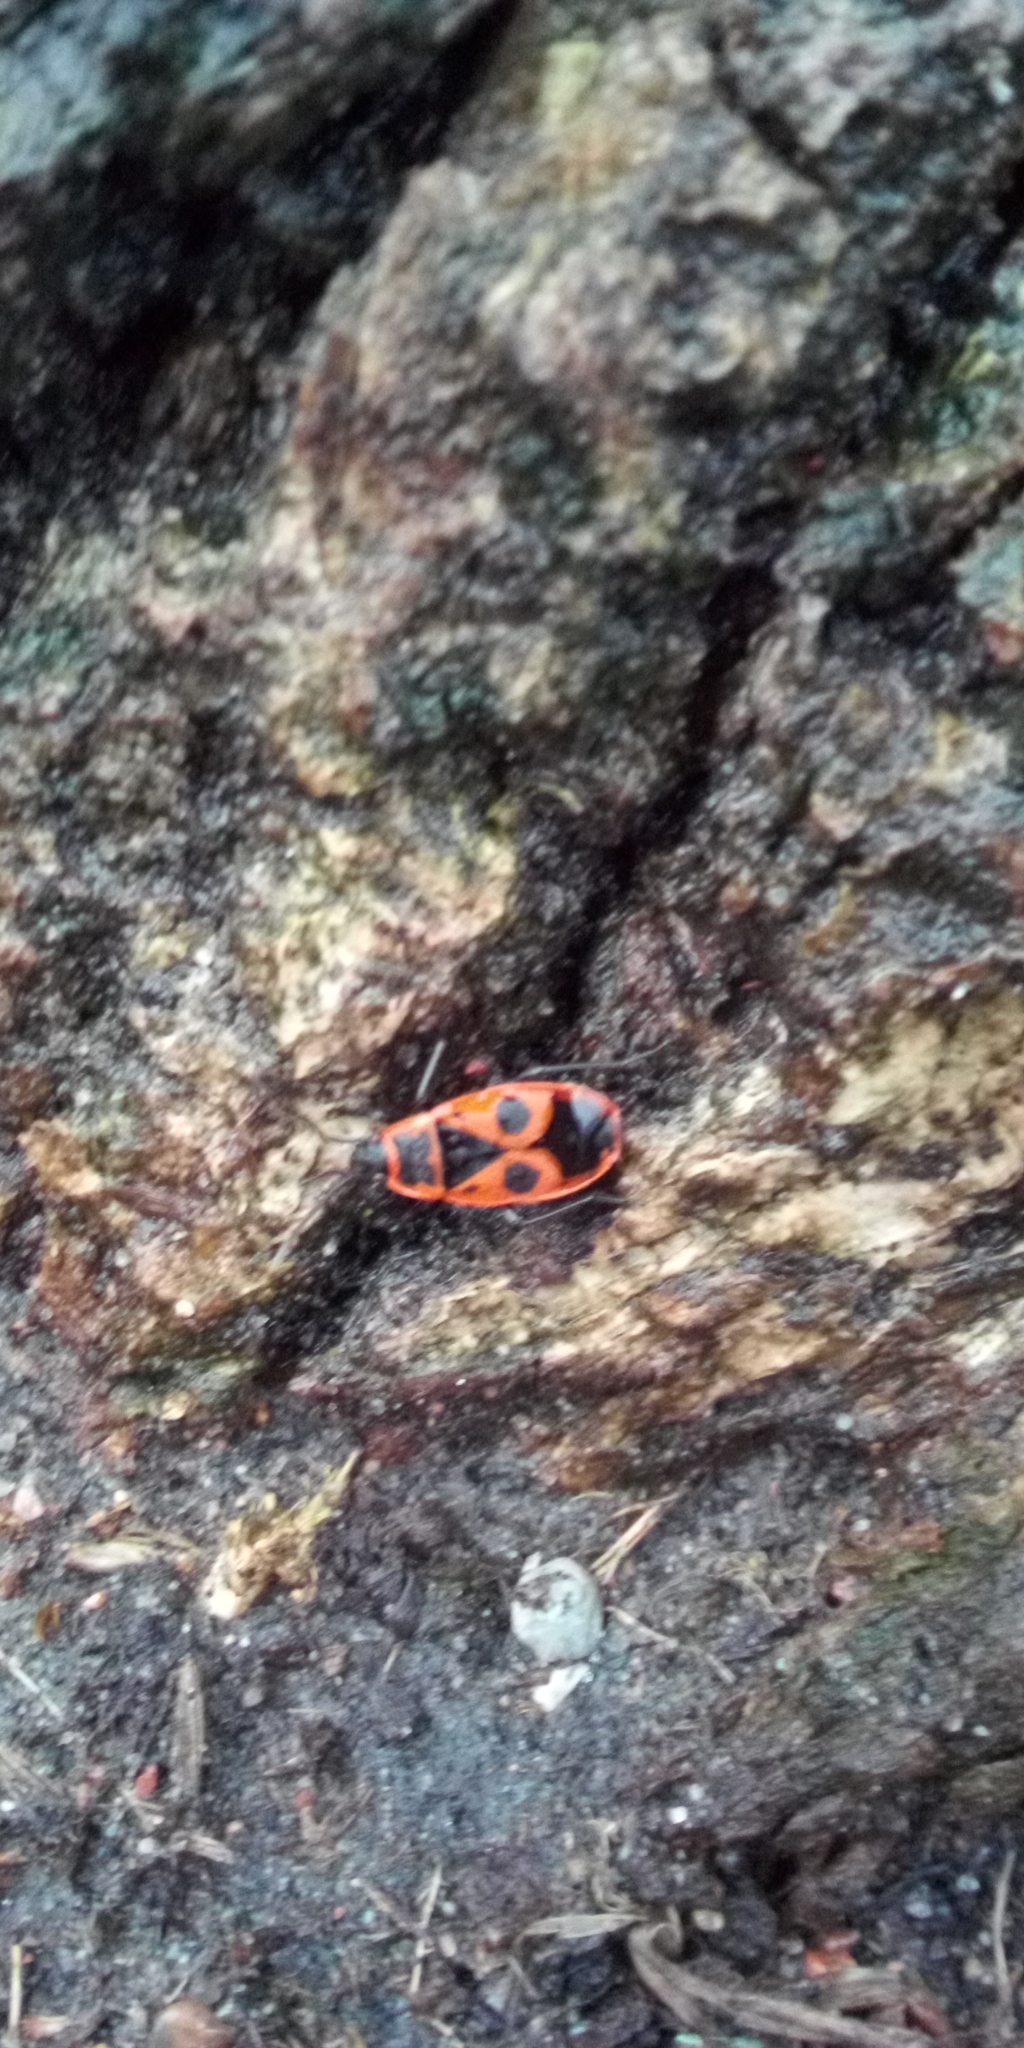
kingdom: Animalia
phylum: Arthropoda
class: Insecta
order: Hemiptera
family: Pyrrhocoridae
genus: Pyrrhocoris
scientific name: Pyrrhocoris apterus
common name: Firebug
